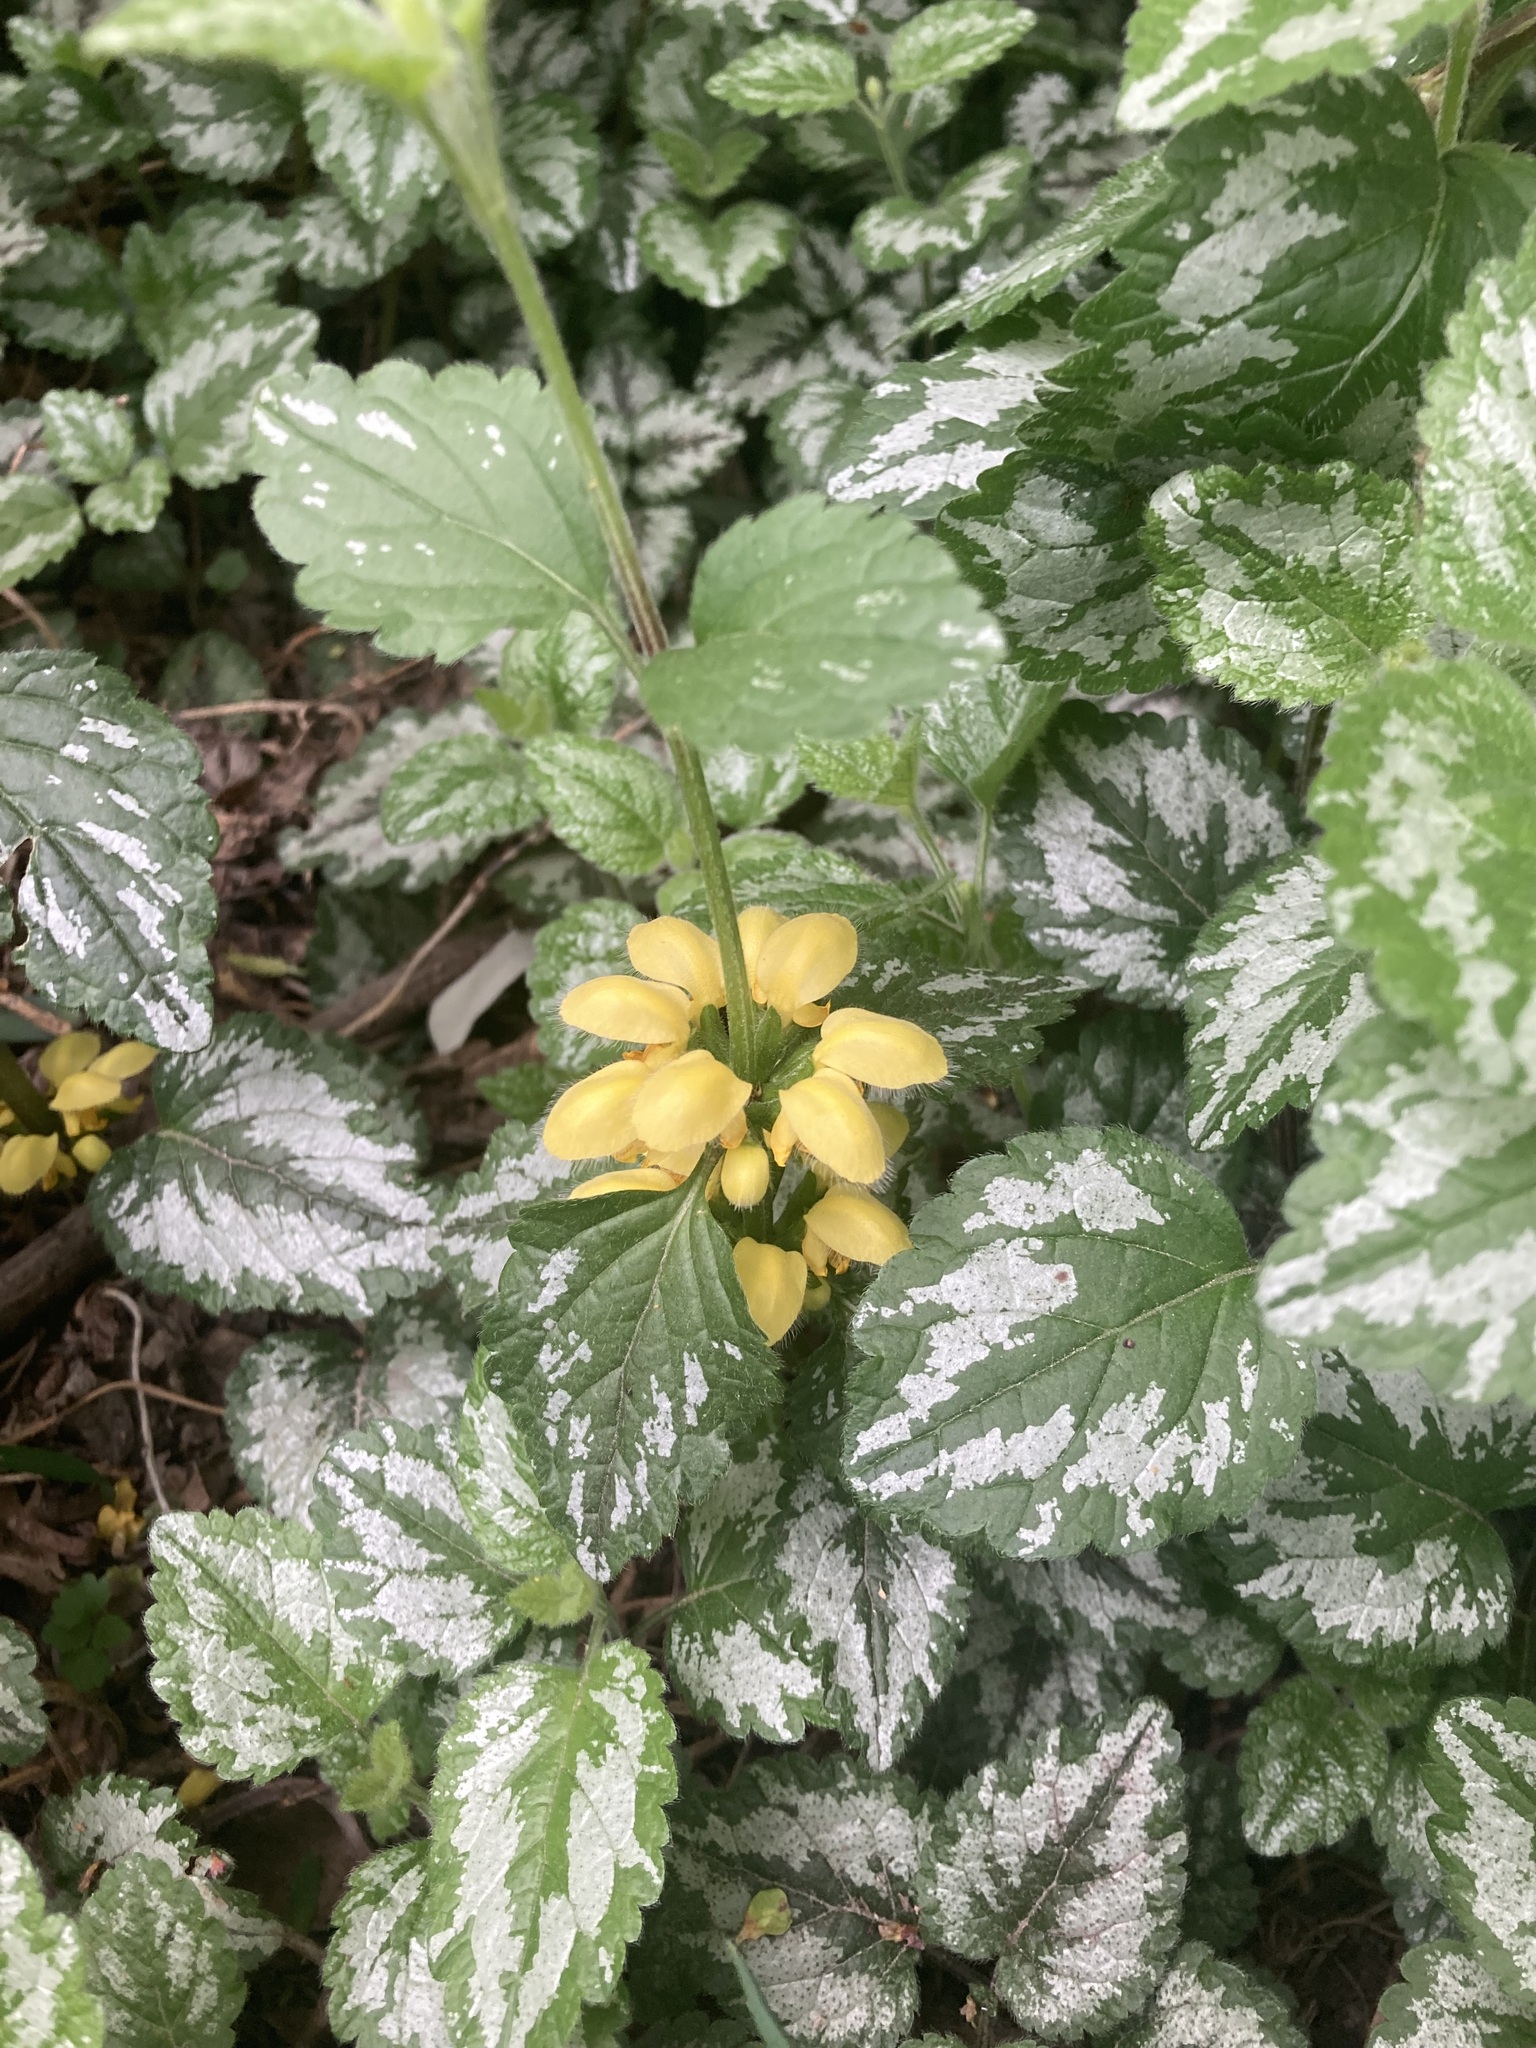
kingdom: Plantae
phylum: Tracheophyta
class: Magnoliopsida
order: Lamiales
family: Lamiaceae
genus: Lamium
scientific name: Lamium galeobdolon
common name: Yellow archangel
